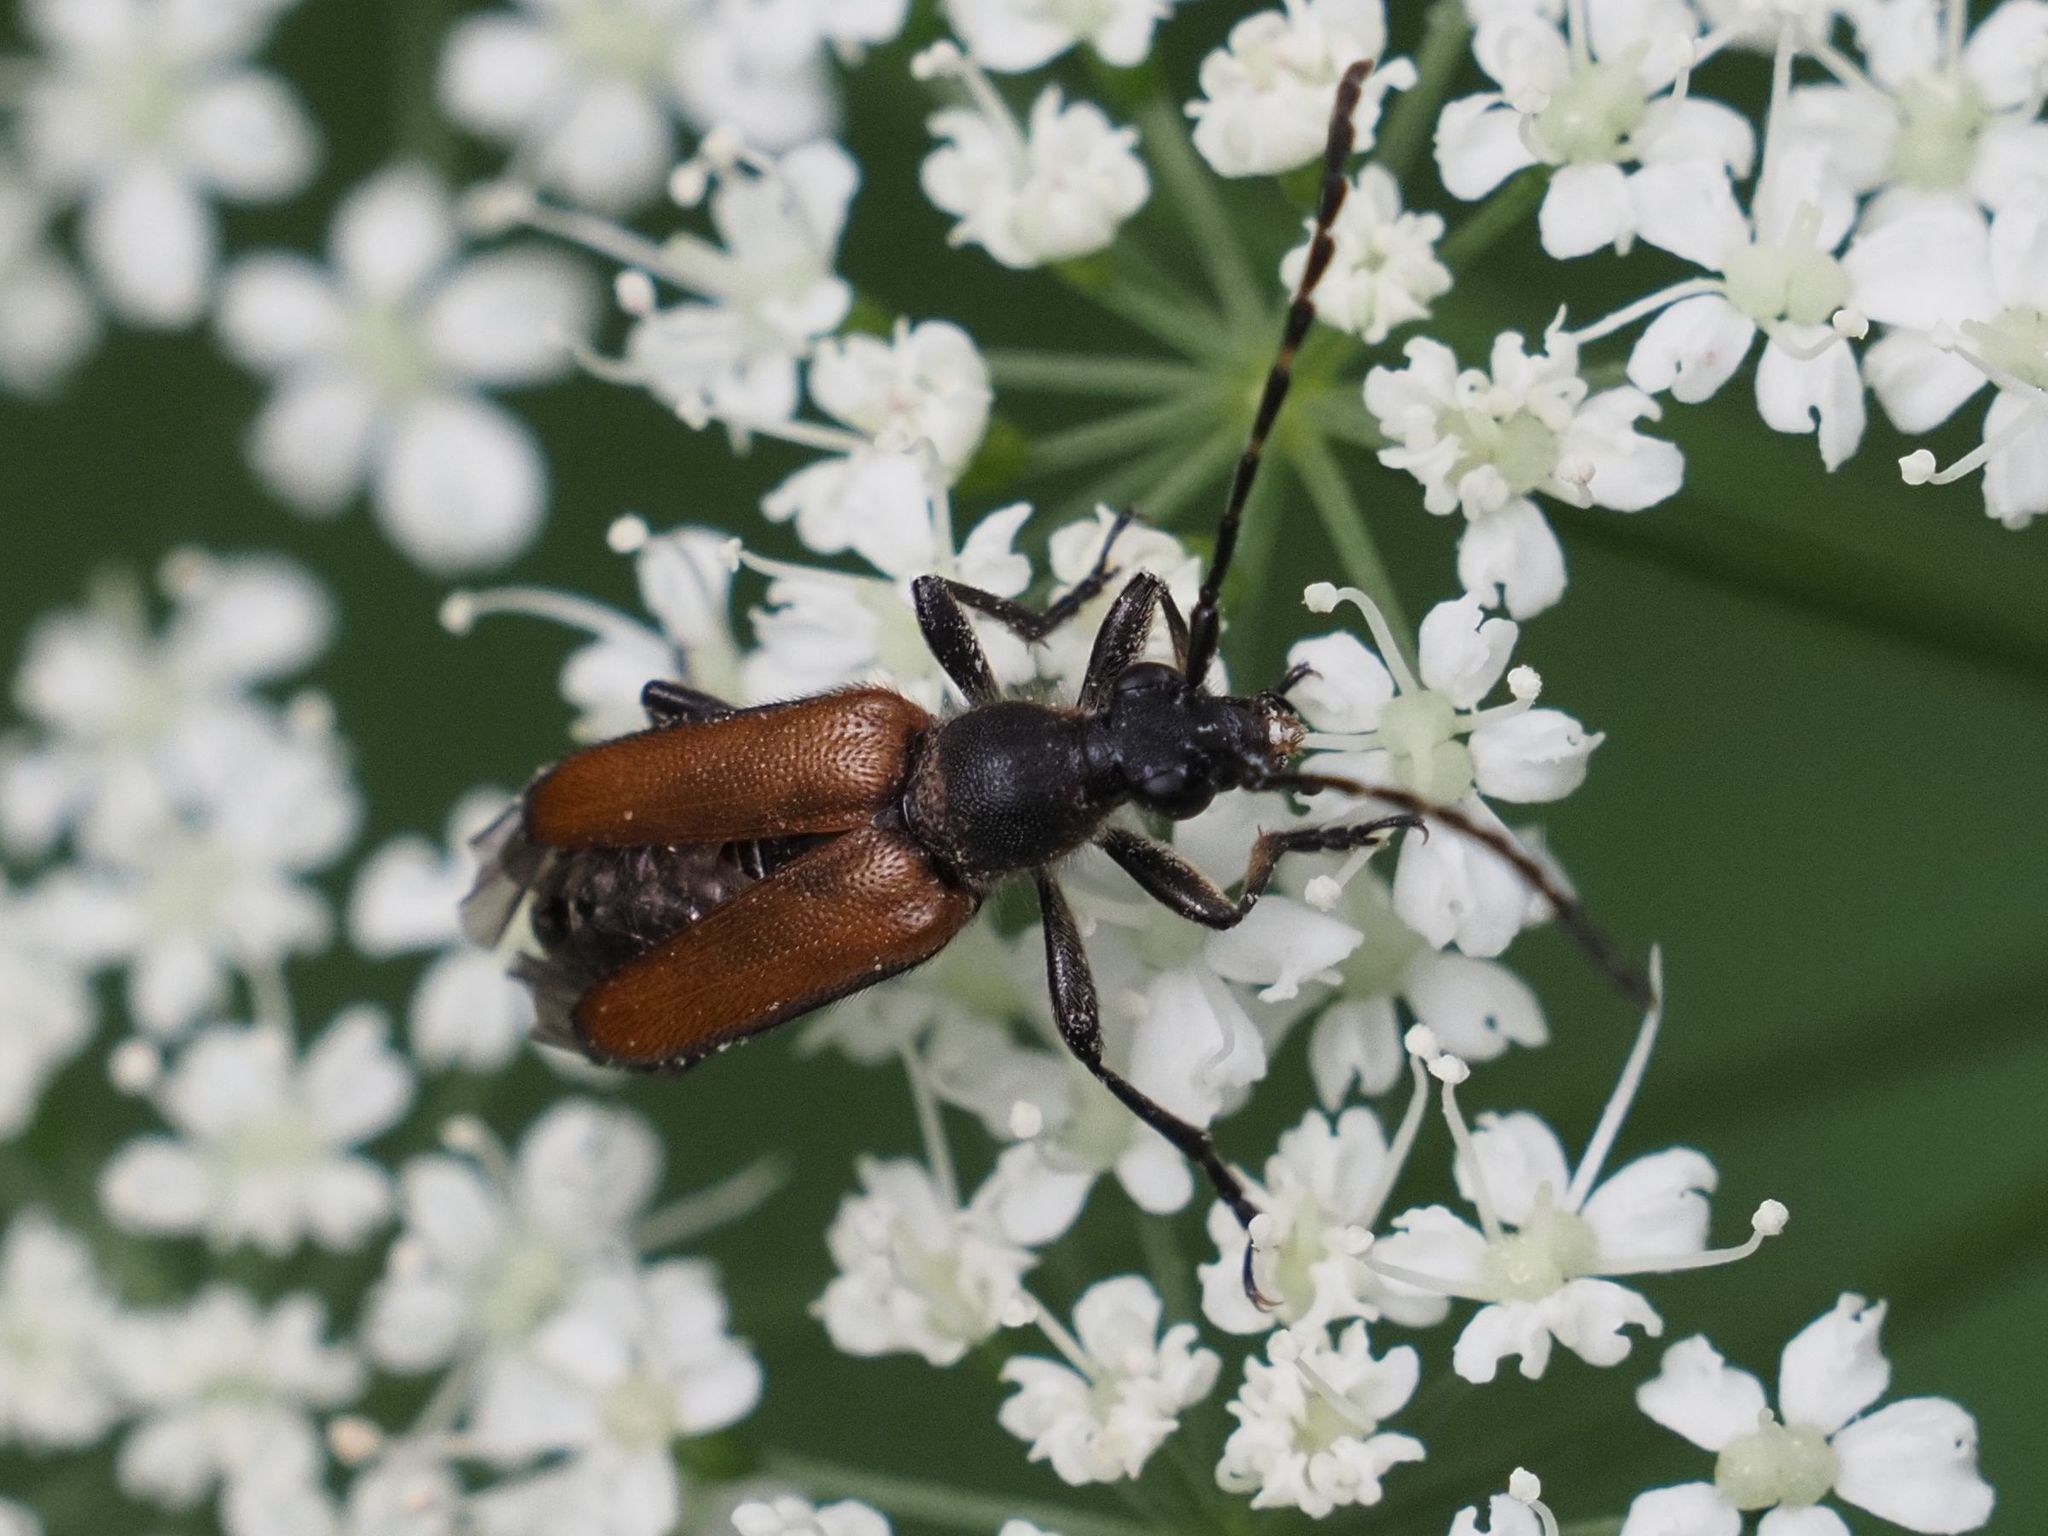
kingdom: Animalia
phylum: Arthropoda
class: Insecta
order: Coleoptera
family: Cerambycidae
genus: Paracorymbia
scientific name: Paracorymbia maculicornis
